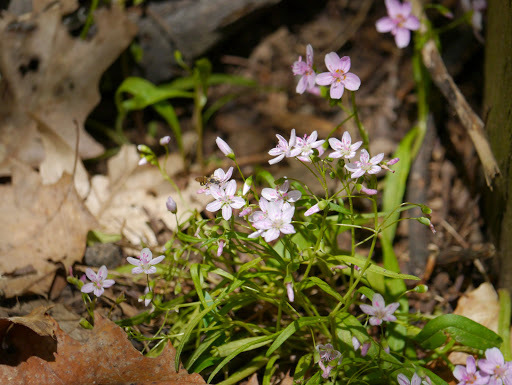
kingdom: Plantae
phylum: Tracheophyta
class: Magnoliopsida
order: Caryophyllales
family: Montiaceae
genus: Claytonia
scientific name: Claytonia virginica
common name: Virginia springbeauty
